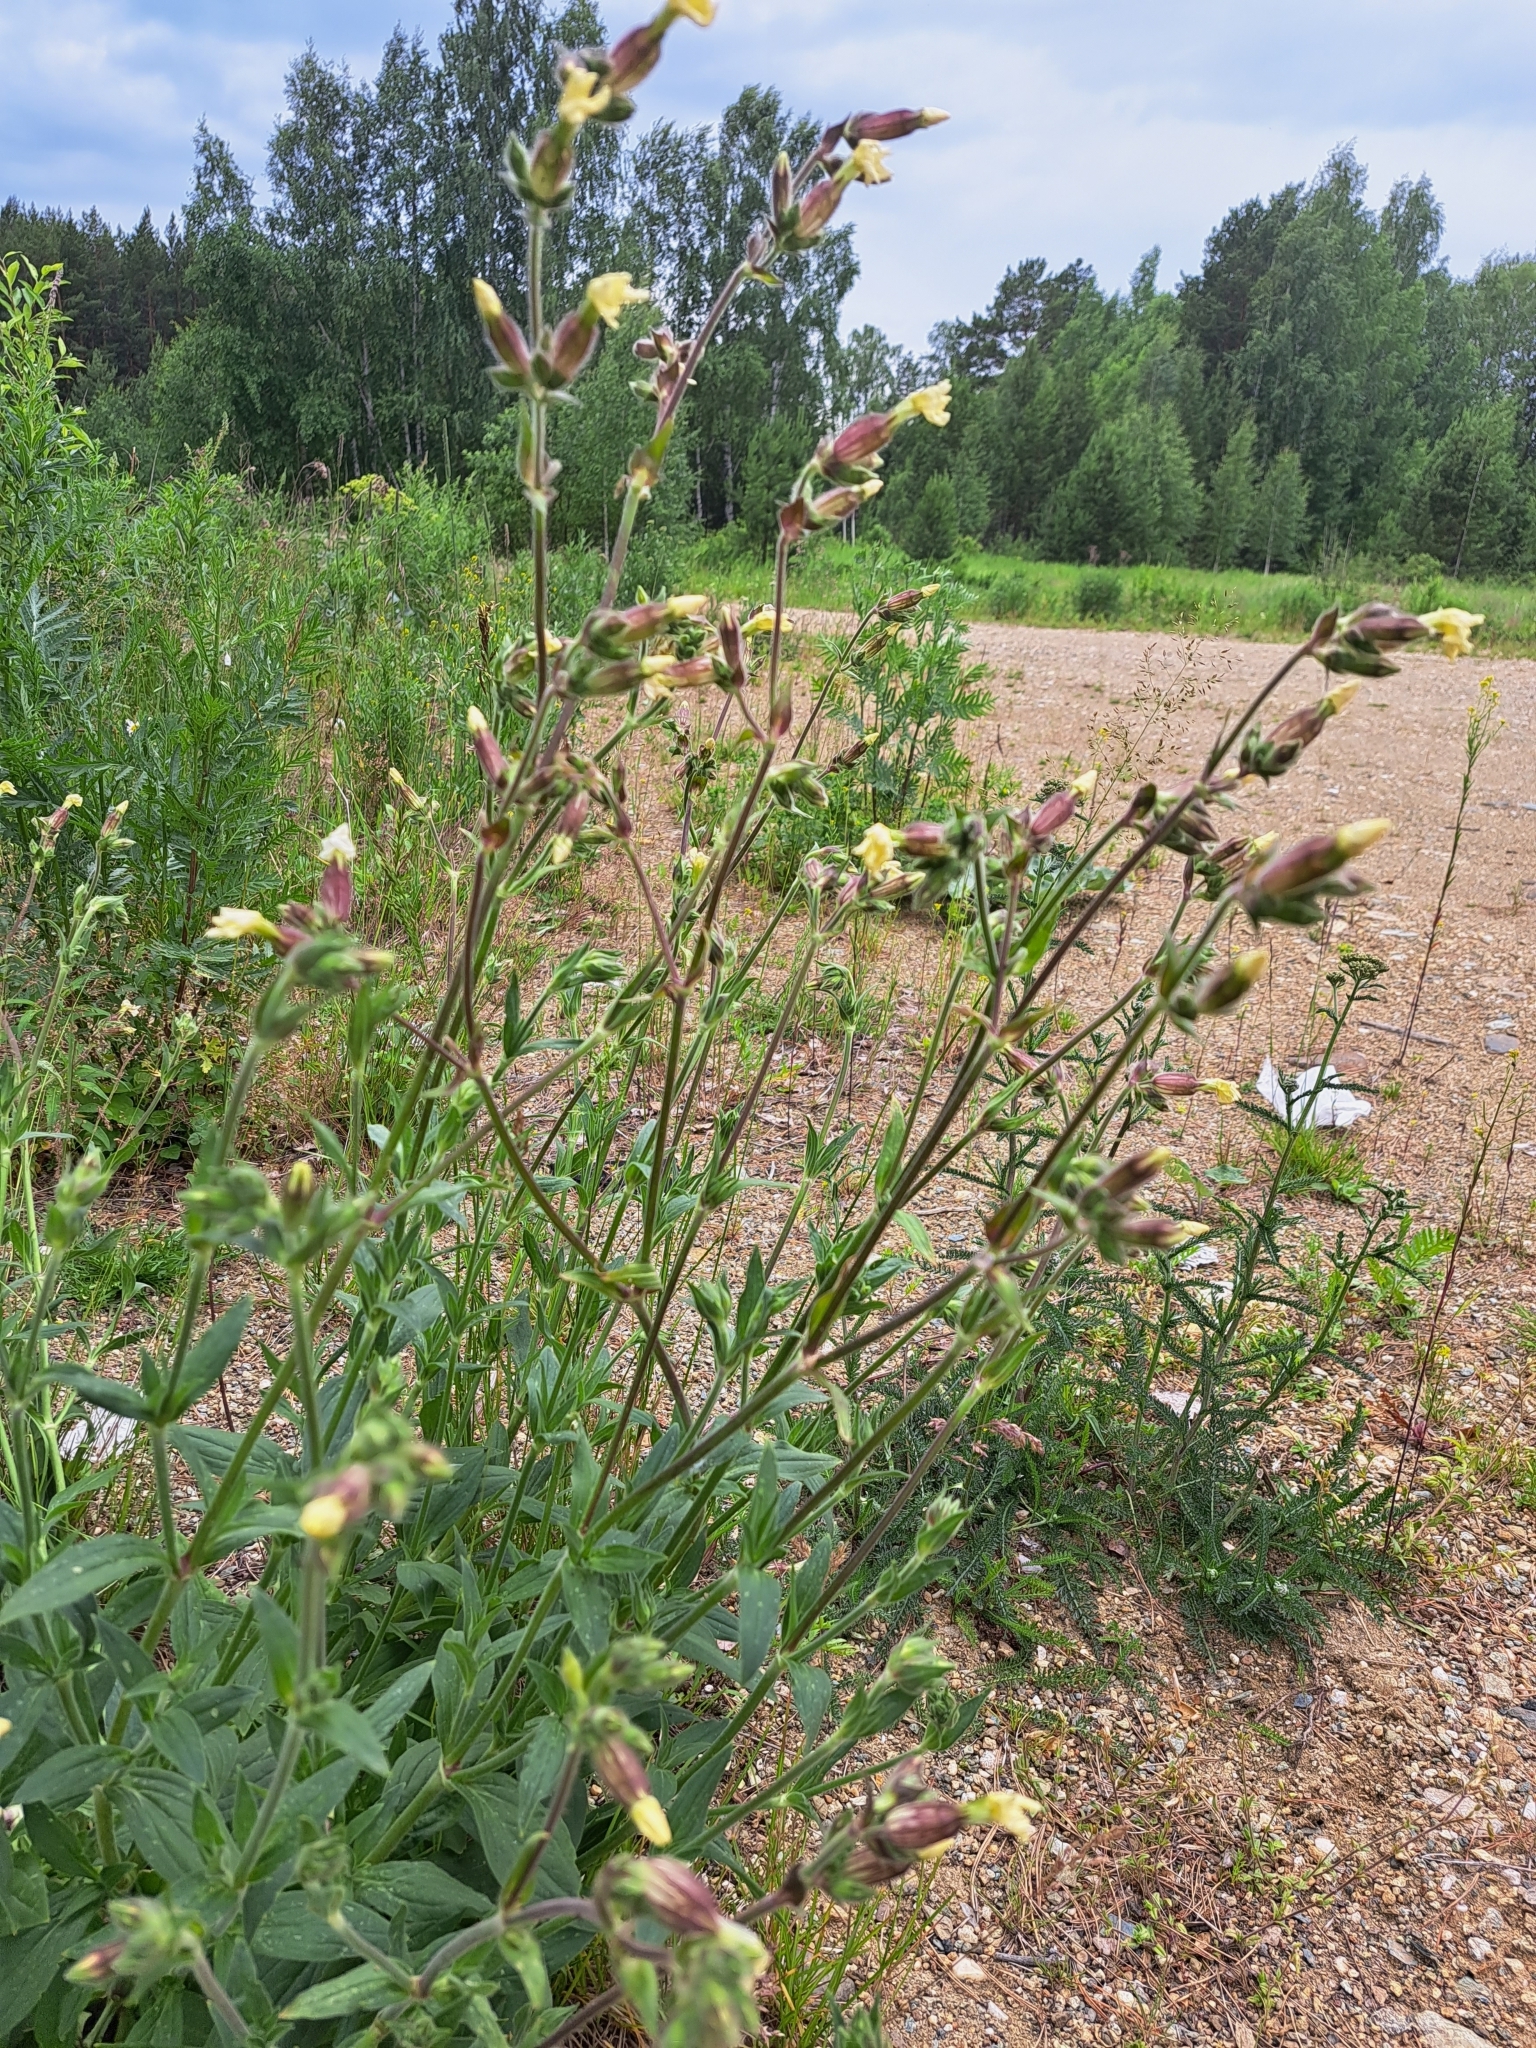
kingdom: Plantae
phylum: Tracheophyta
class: Magnoliopsida
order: Caryophyllales
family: Caryophyllaceae
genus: Silene
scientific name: Silene latifolia
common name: White campion
